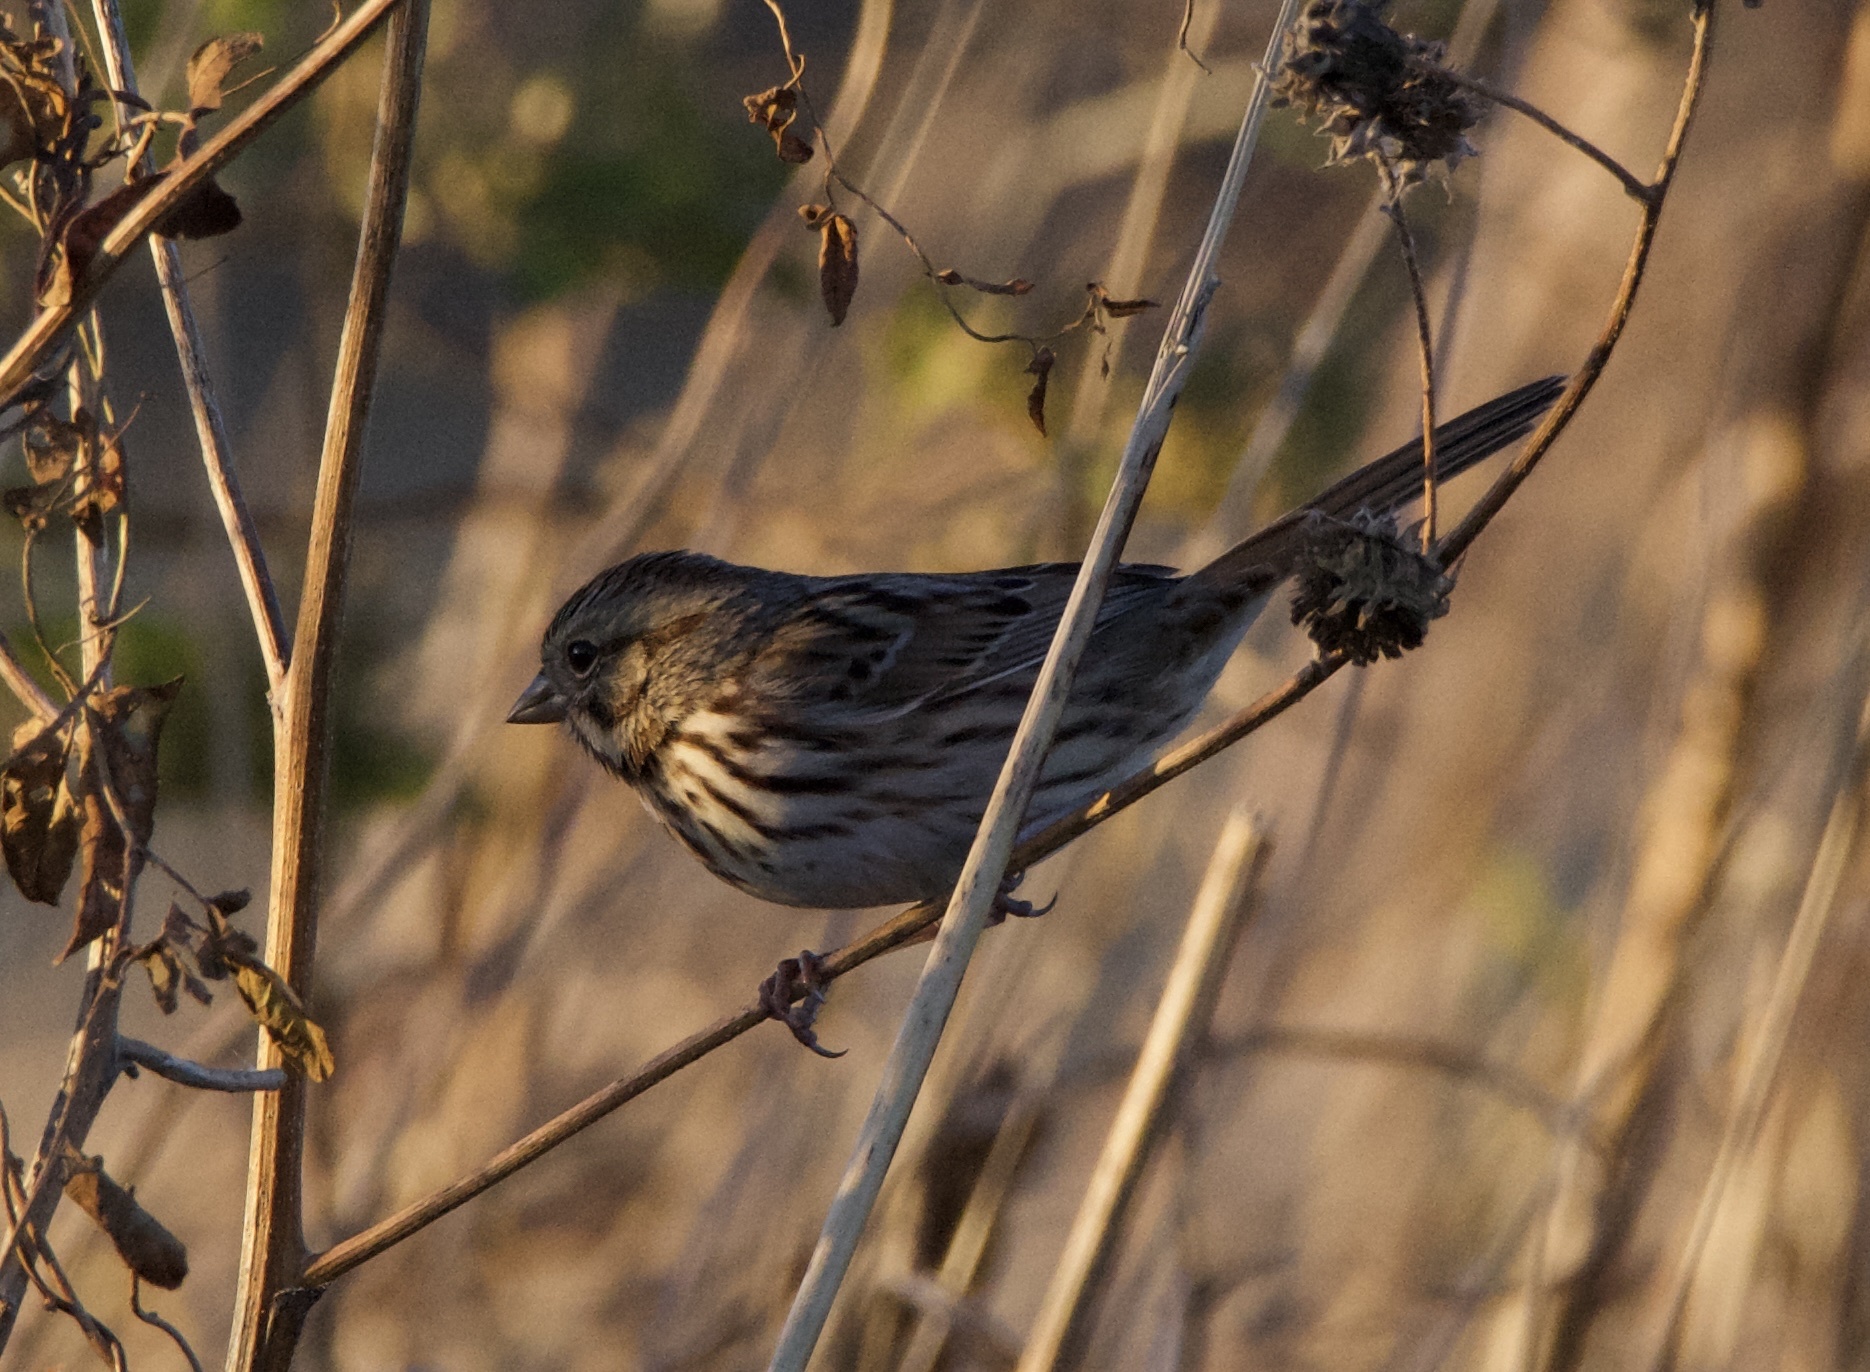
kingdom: Animalia
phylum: Chordata
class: Aves
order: Passeriformes
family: Passerellidae
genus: Melospiza
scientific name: Melospiza melodia
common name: Song sparrow
